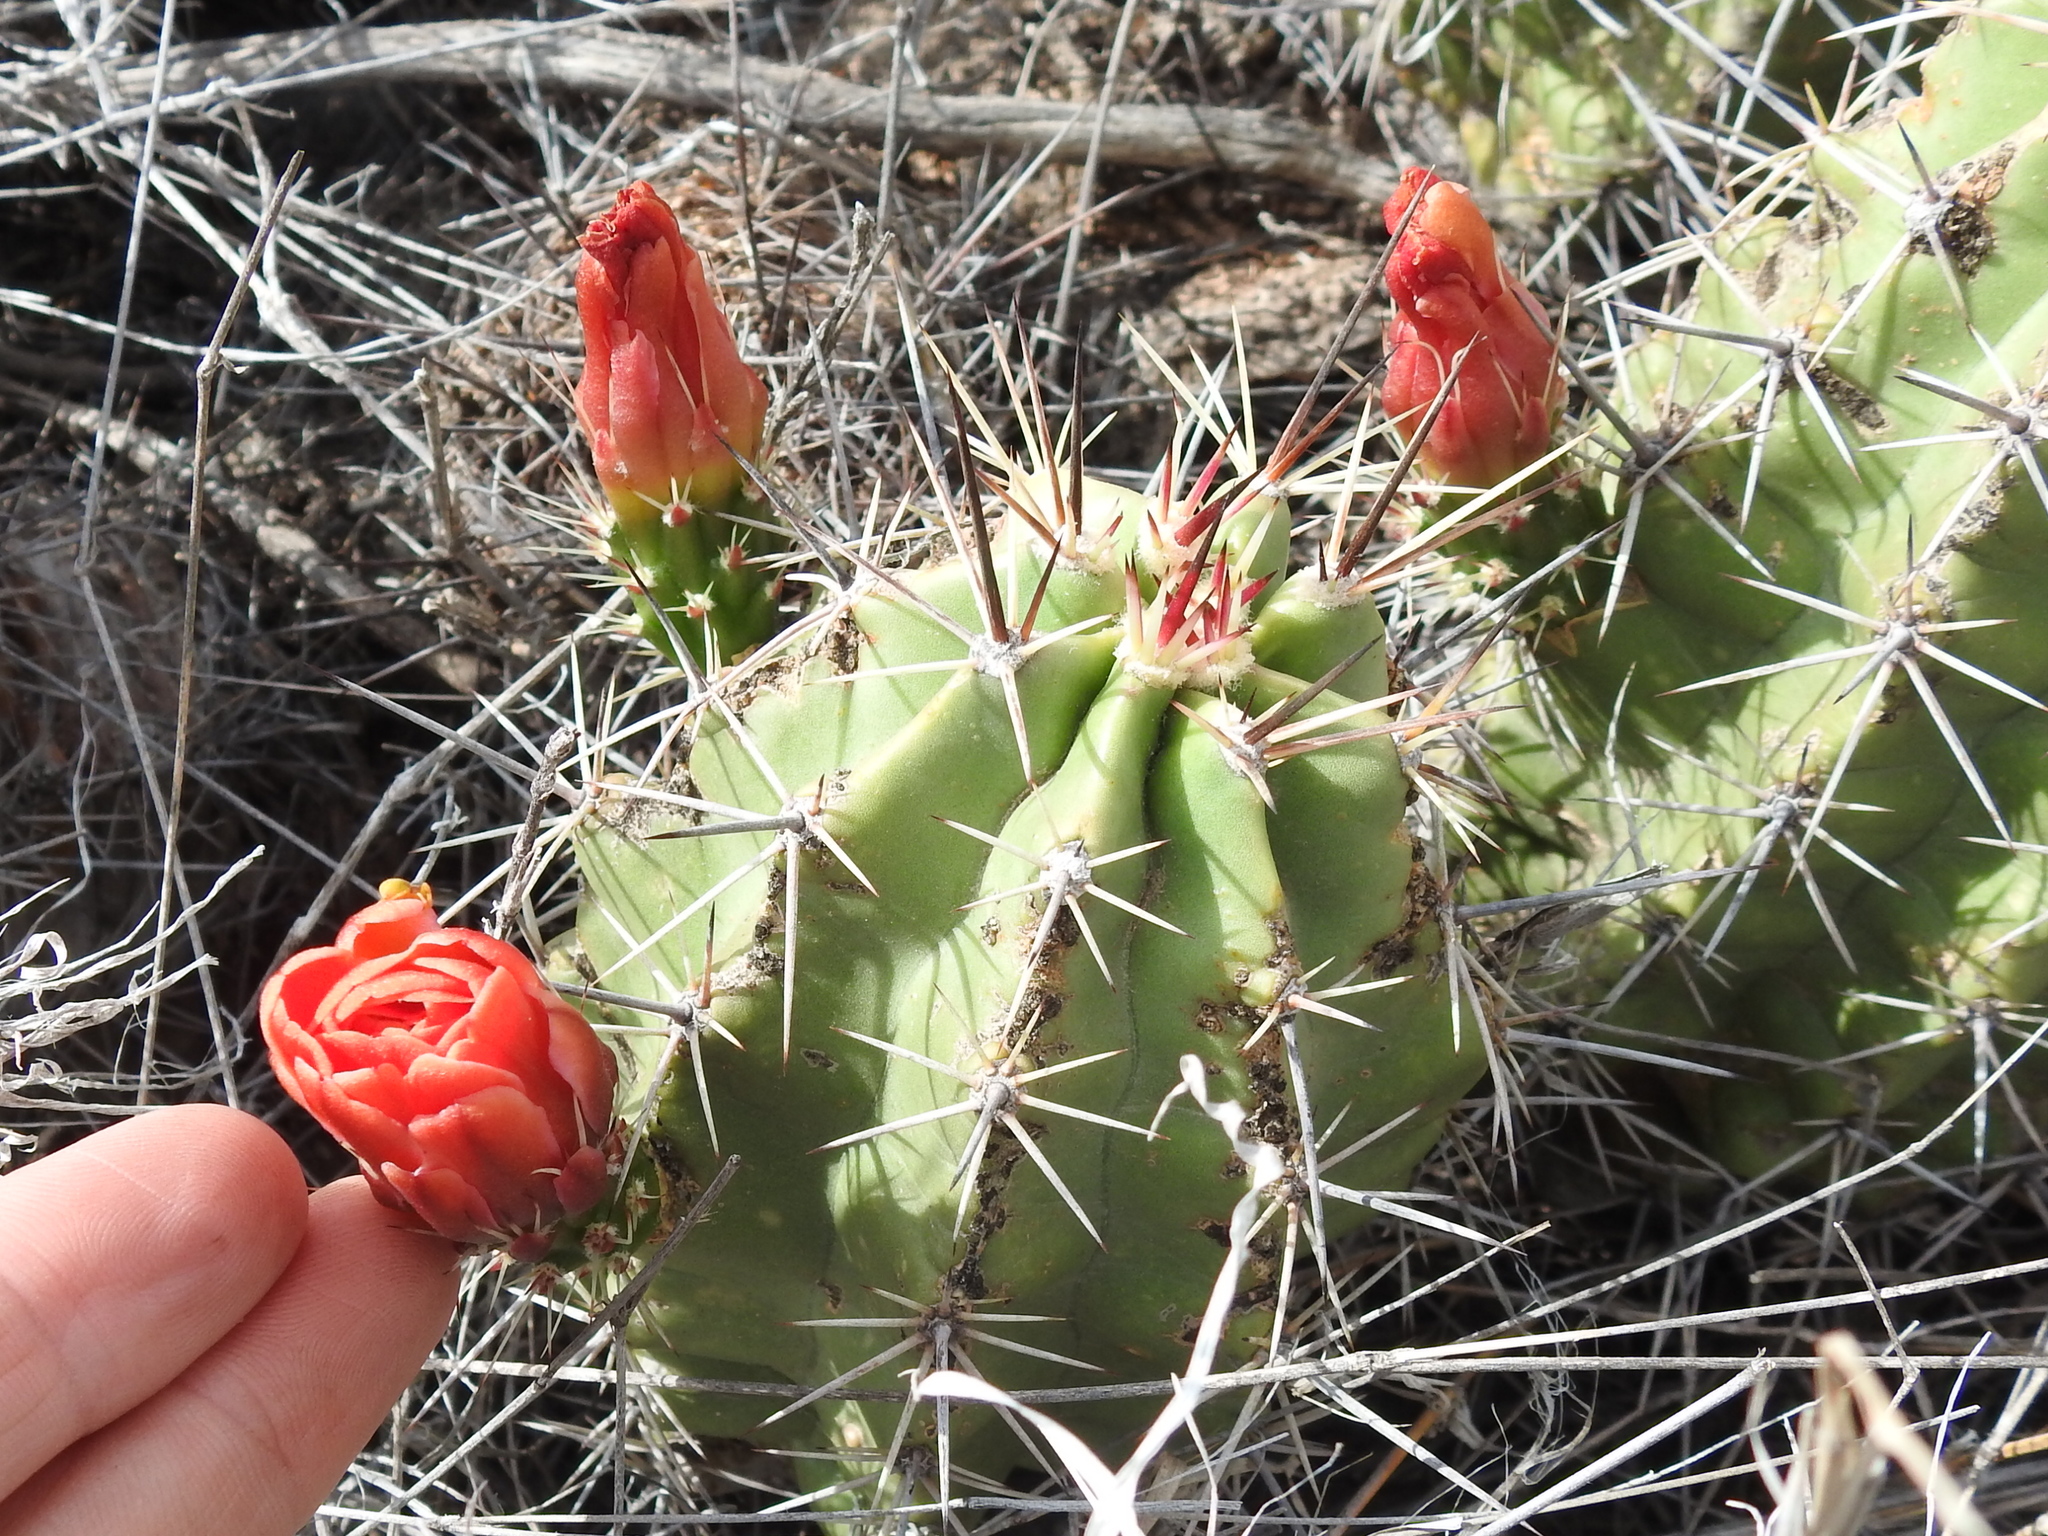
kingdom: Plantae
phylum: Tracheophyta
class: Magnoliopsida
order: Caryophyllales
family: Cactaceae
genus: Echinocereus
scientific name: Echinocereus coccineus
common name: Scarlet hedgehog cactus
